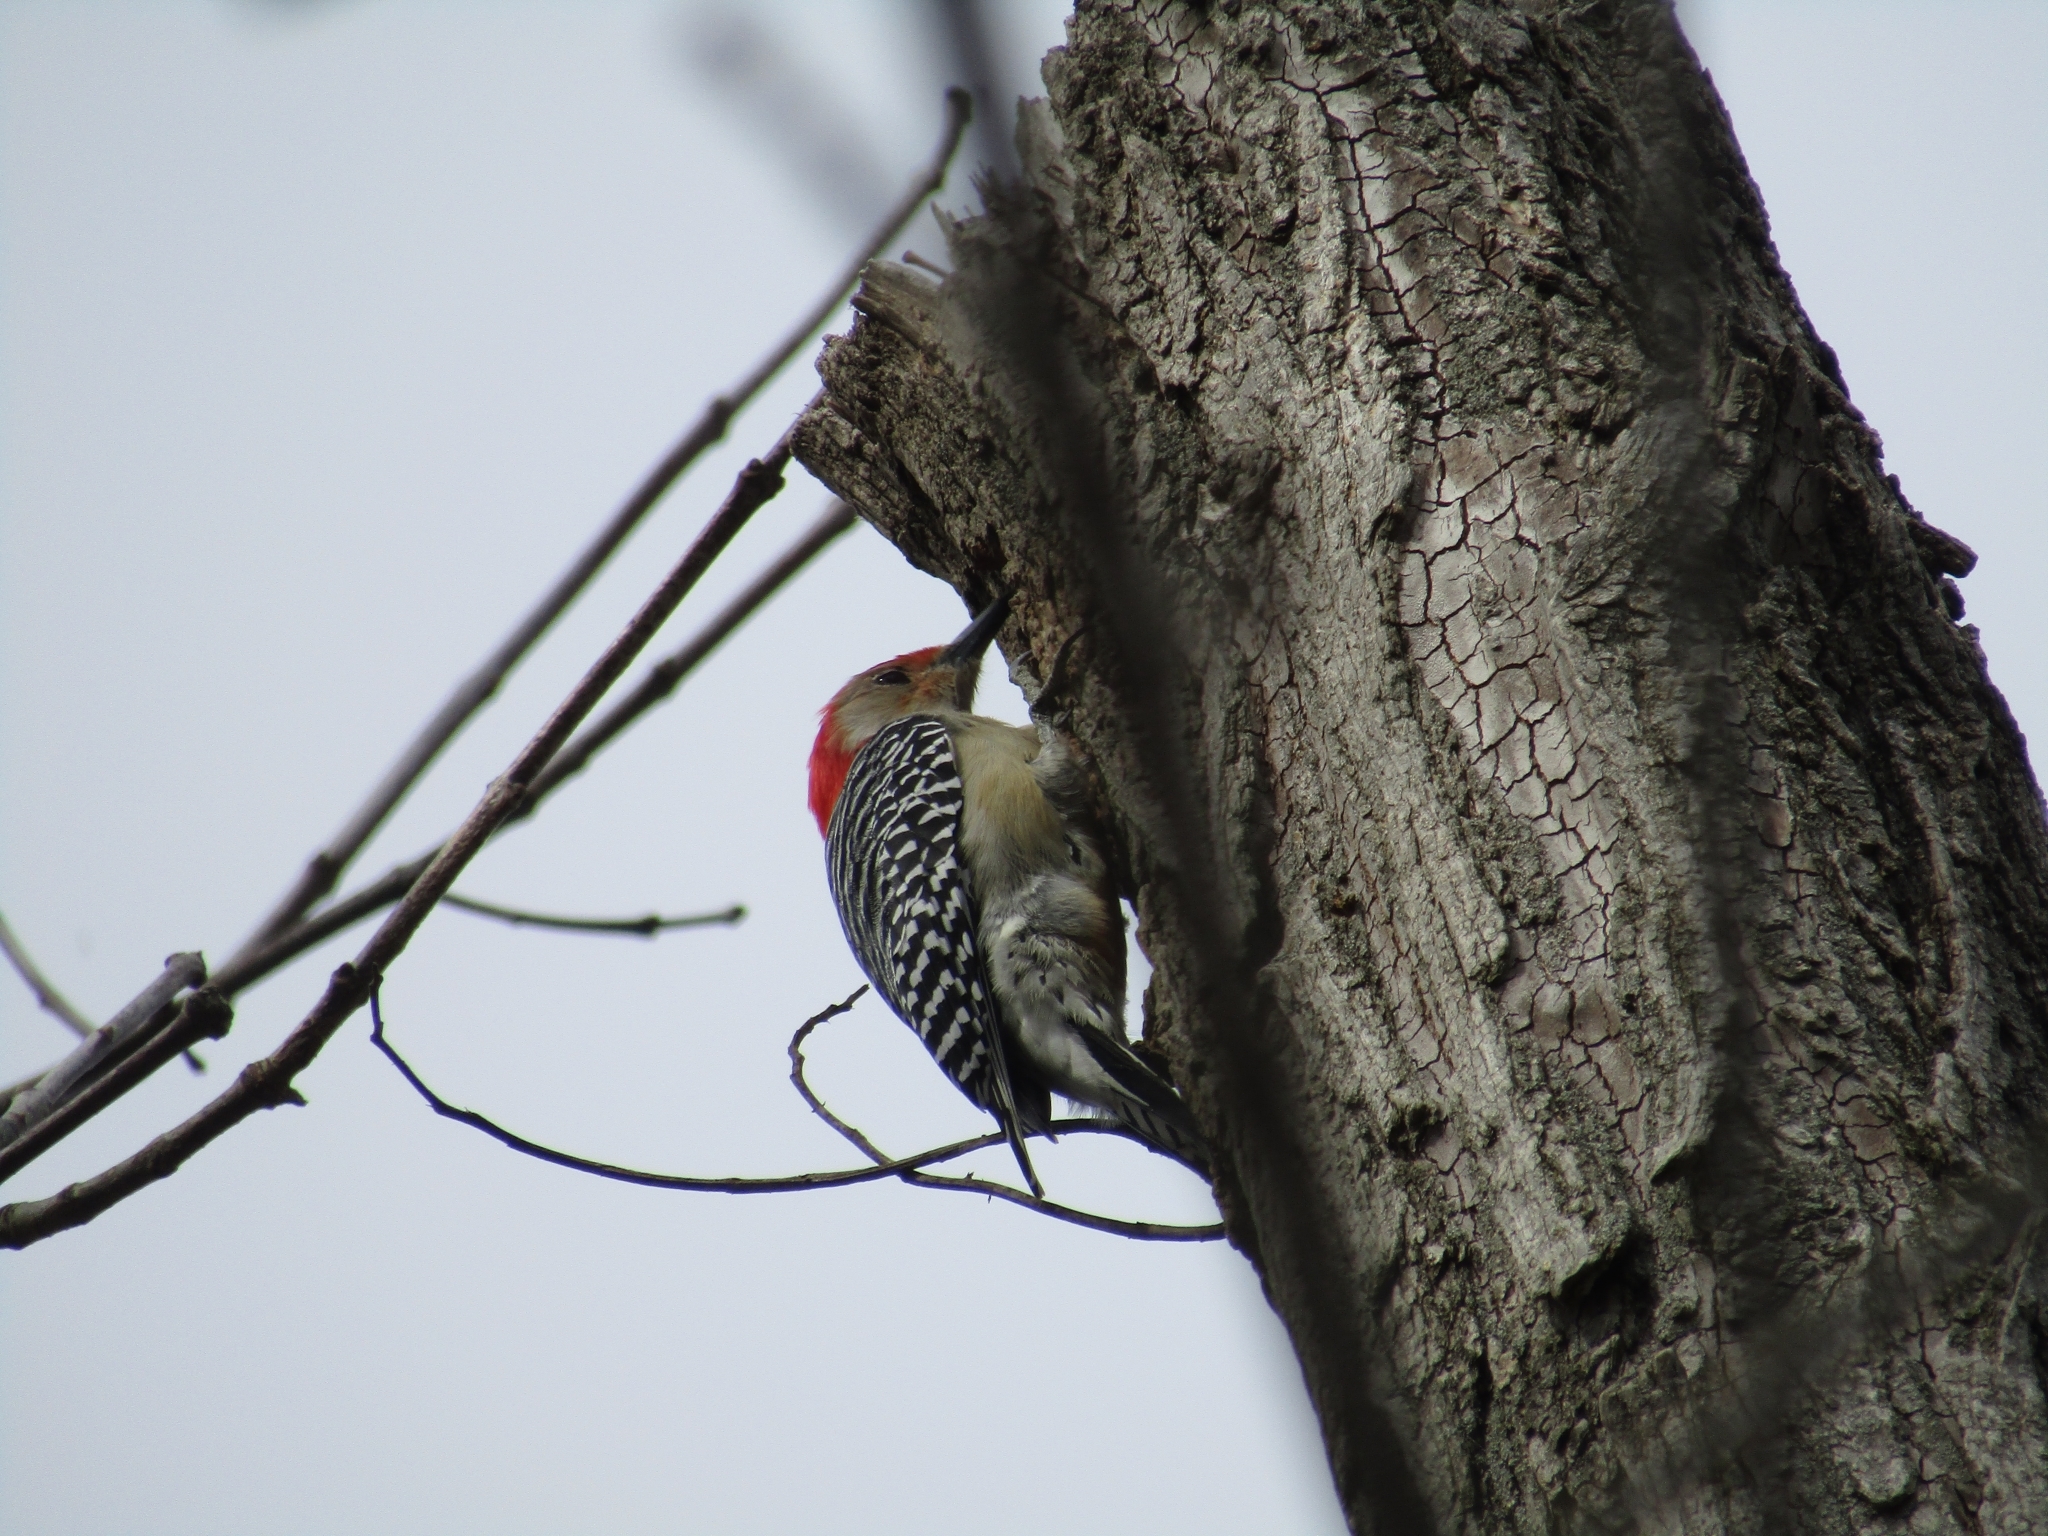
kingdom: Animalia
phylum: Chordata
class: Aves
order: Piciformes
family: Picidae
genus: Melanerpes
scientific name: Melanerpes carolinus
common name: Red-bellied woodpecker
